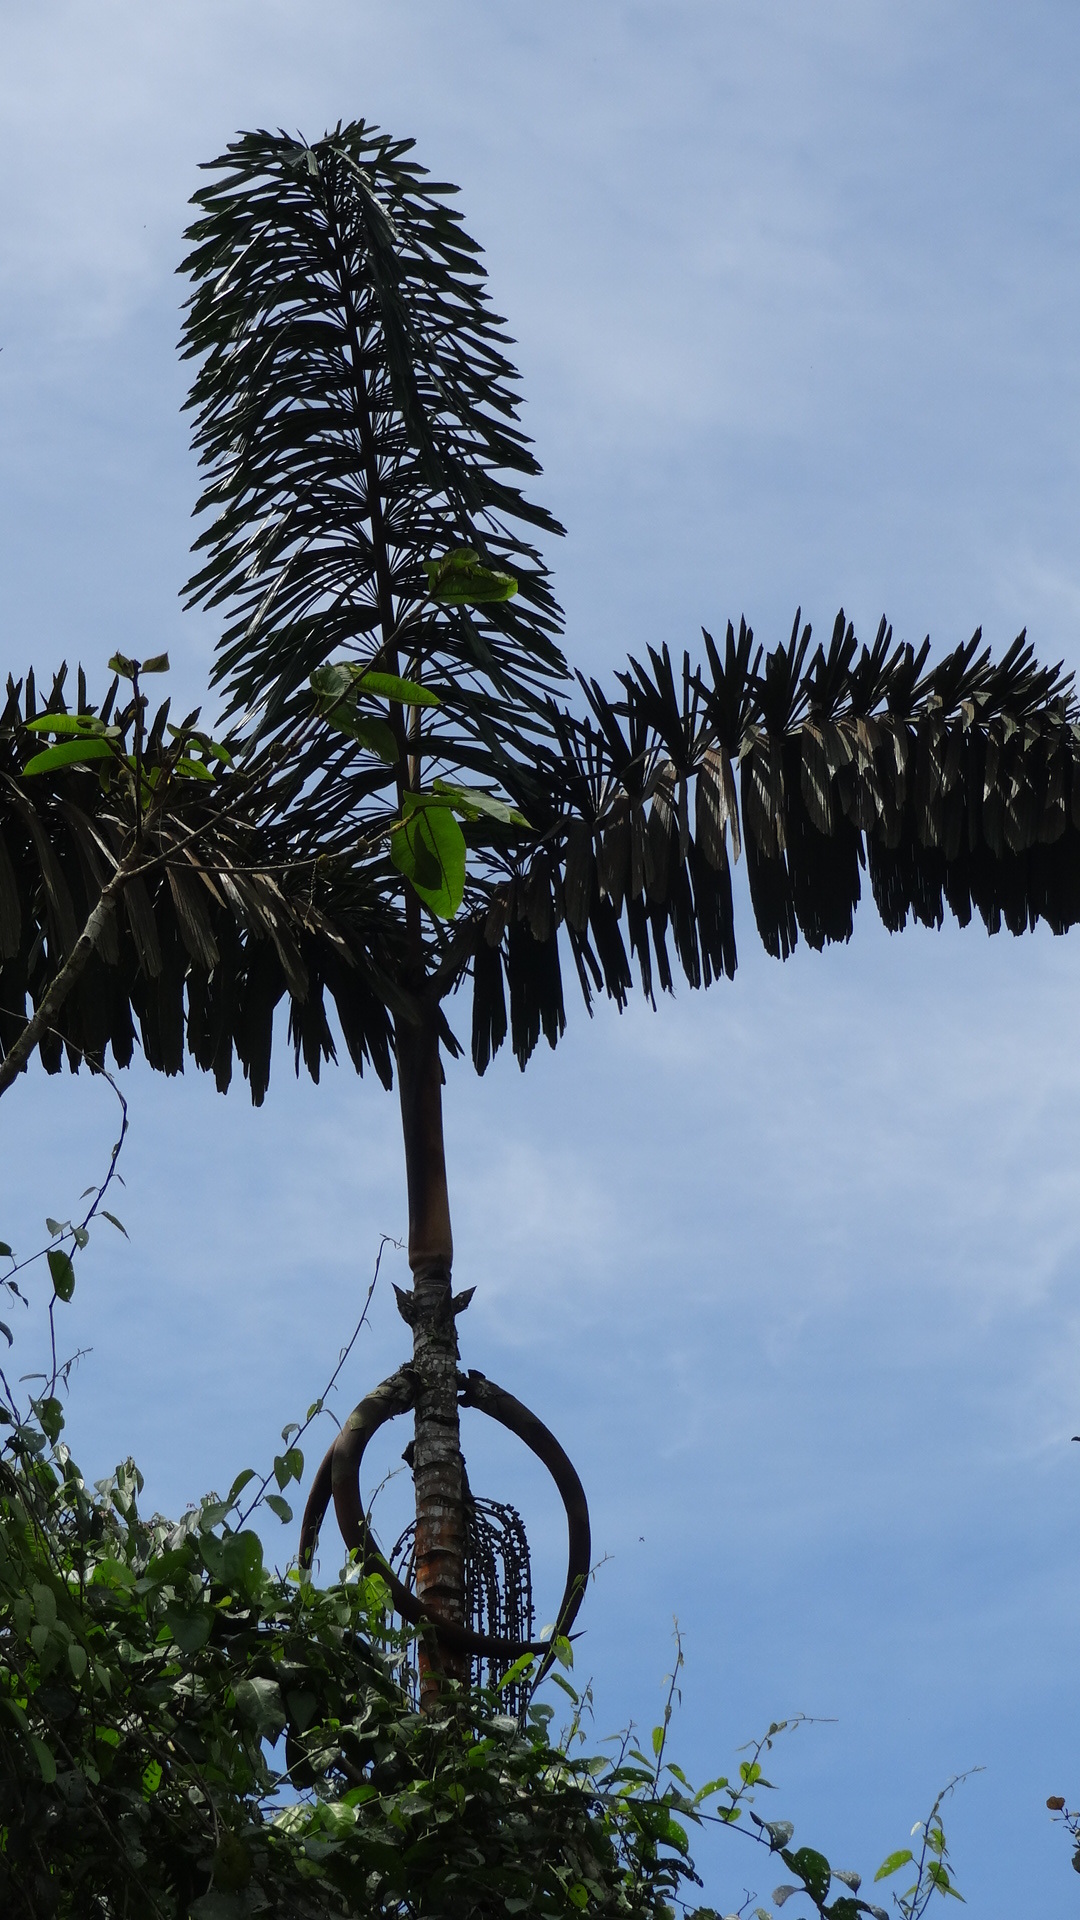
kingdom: Plantae
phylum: Tracheophyta
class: Liliopsida
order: Arecales
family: Arecaceae
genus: Iriartea
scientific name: Iriartea deltoidea
